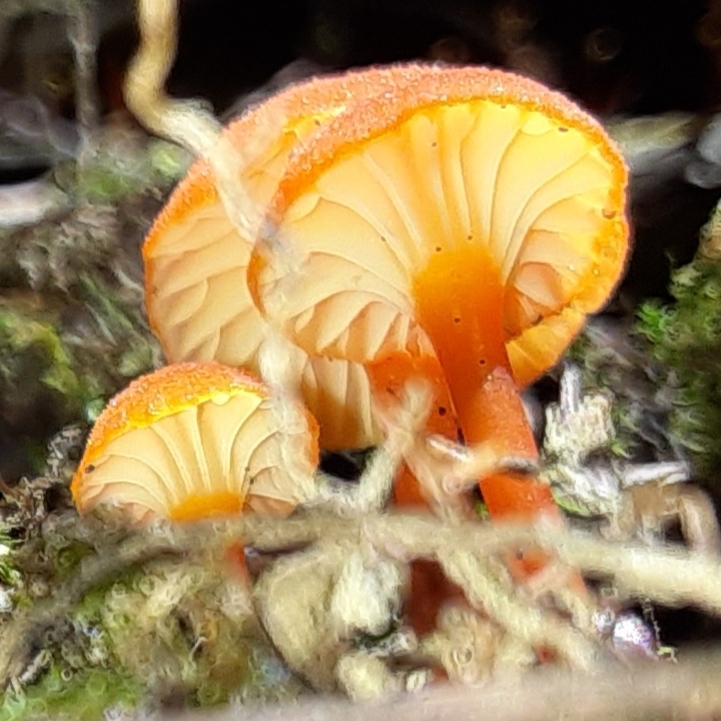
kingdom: Fungi
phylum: Basidiomycota
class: Agaricomycetes
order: Agaricales
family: Hygrophoraceae
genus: Hygrocybe
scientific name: Hygrocybe cantharellus
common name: Goblet waxcap
